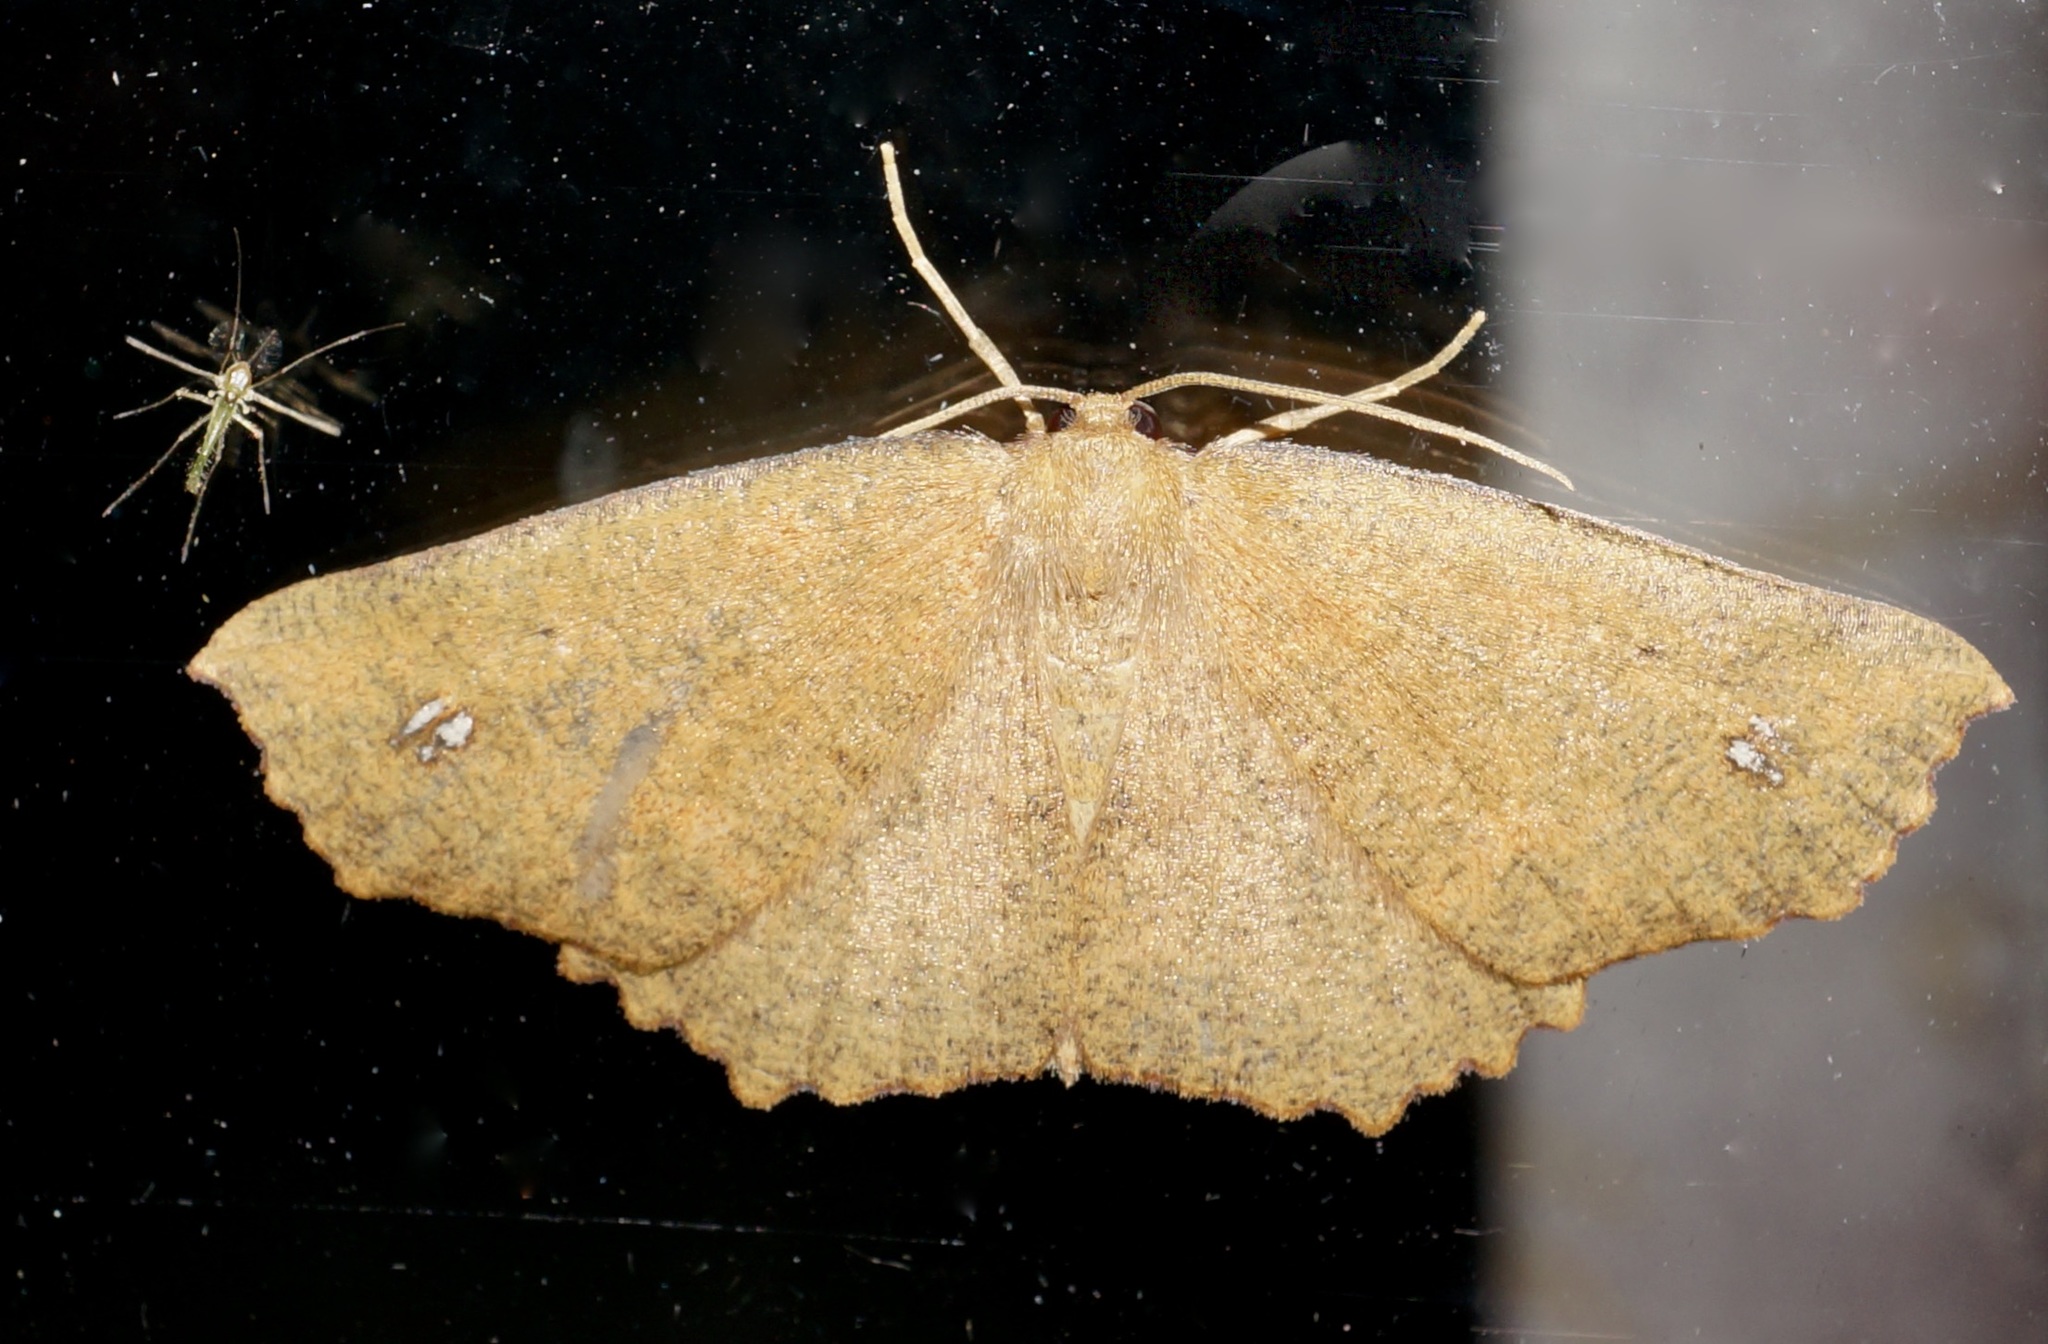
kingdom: Animalia
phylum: Arthropoda
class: Insecta
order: Lepidoptera
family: Geometridae
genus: Xyridacma
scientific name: Xyridacma alectoraria
